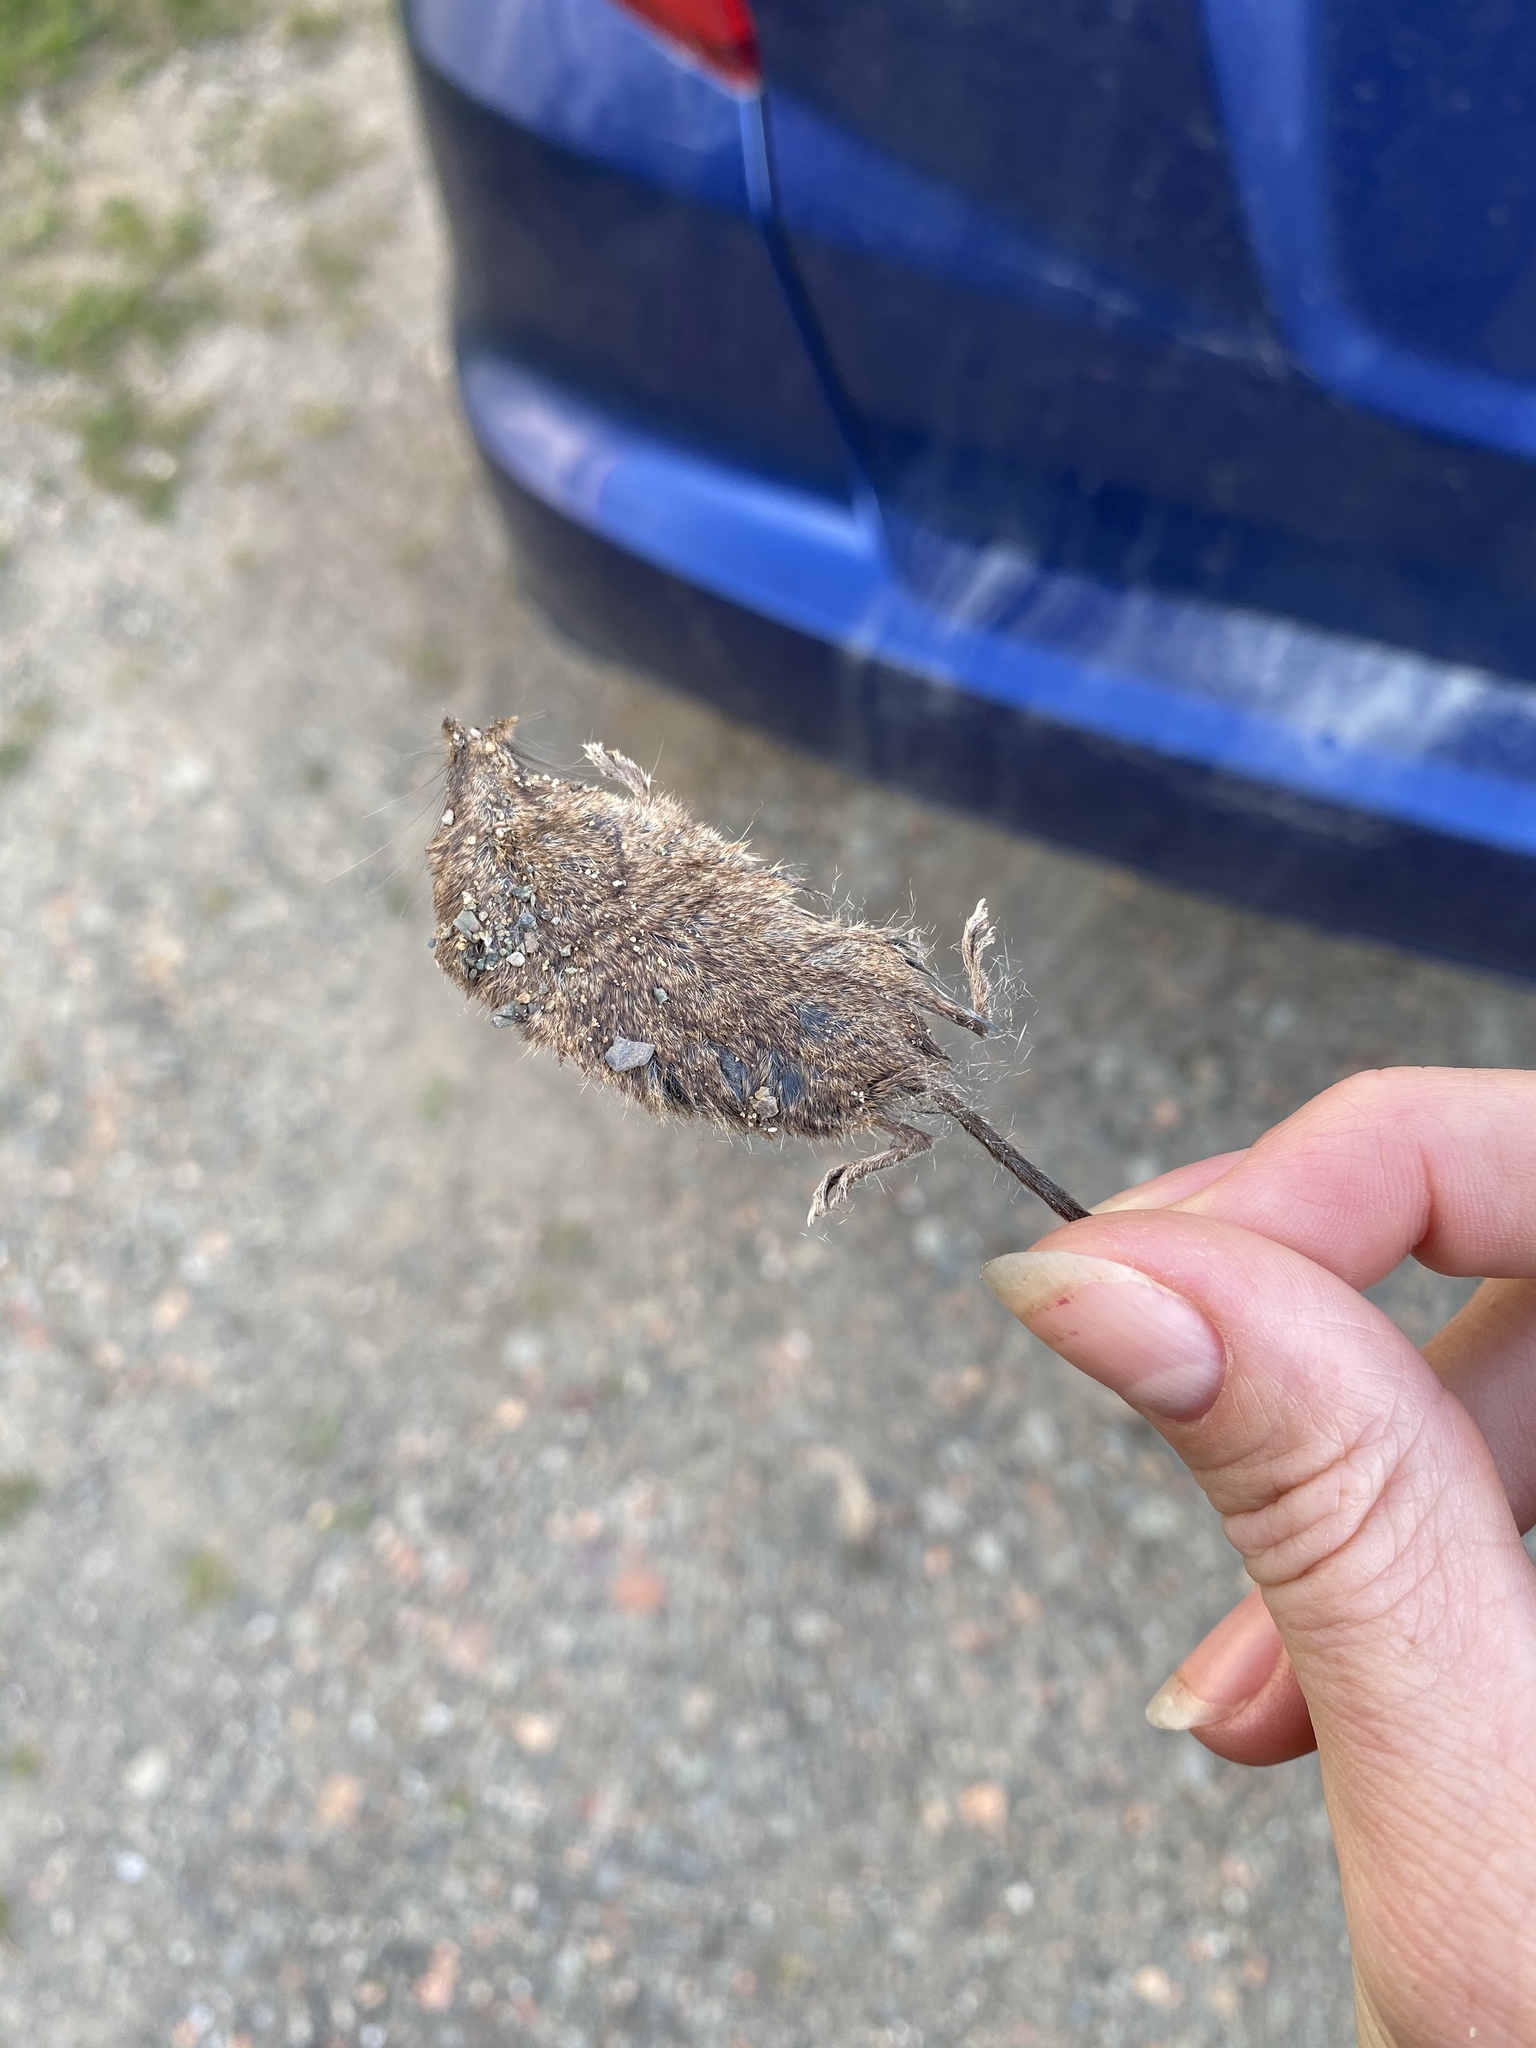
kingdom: Animalia
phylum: Chordata
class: Mammalia
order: Soricomorpha
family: Soricidae
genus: Sorex
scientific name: Sorex cinereus
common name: Cinereus shrew
